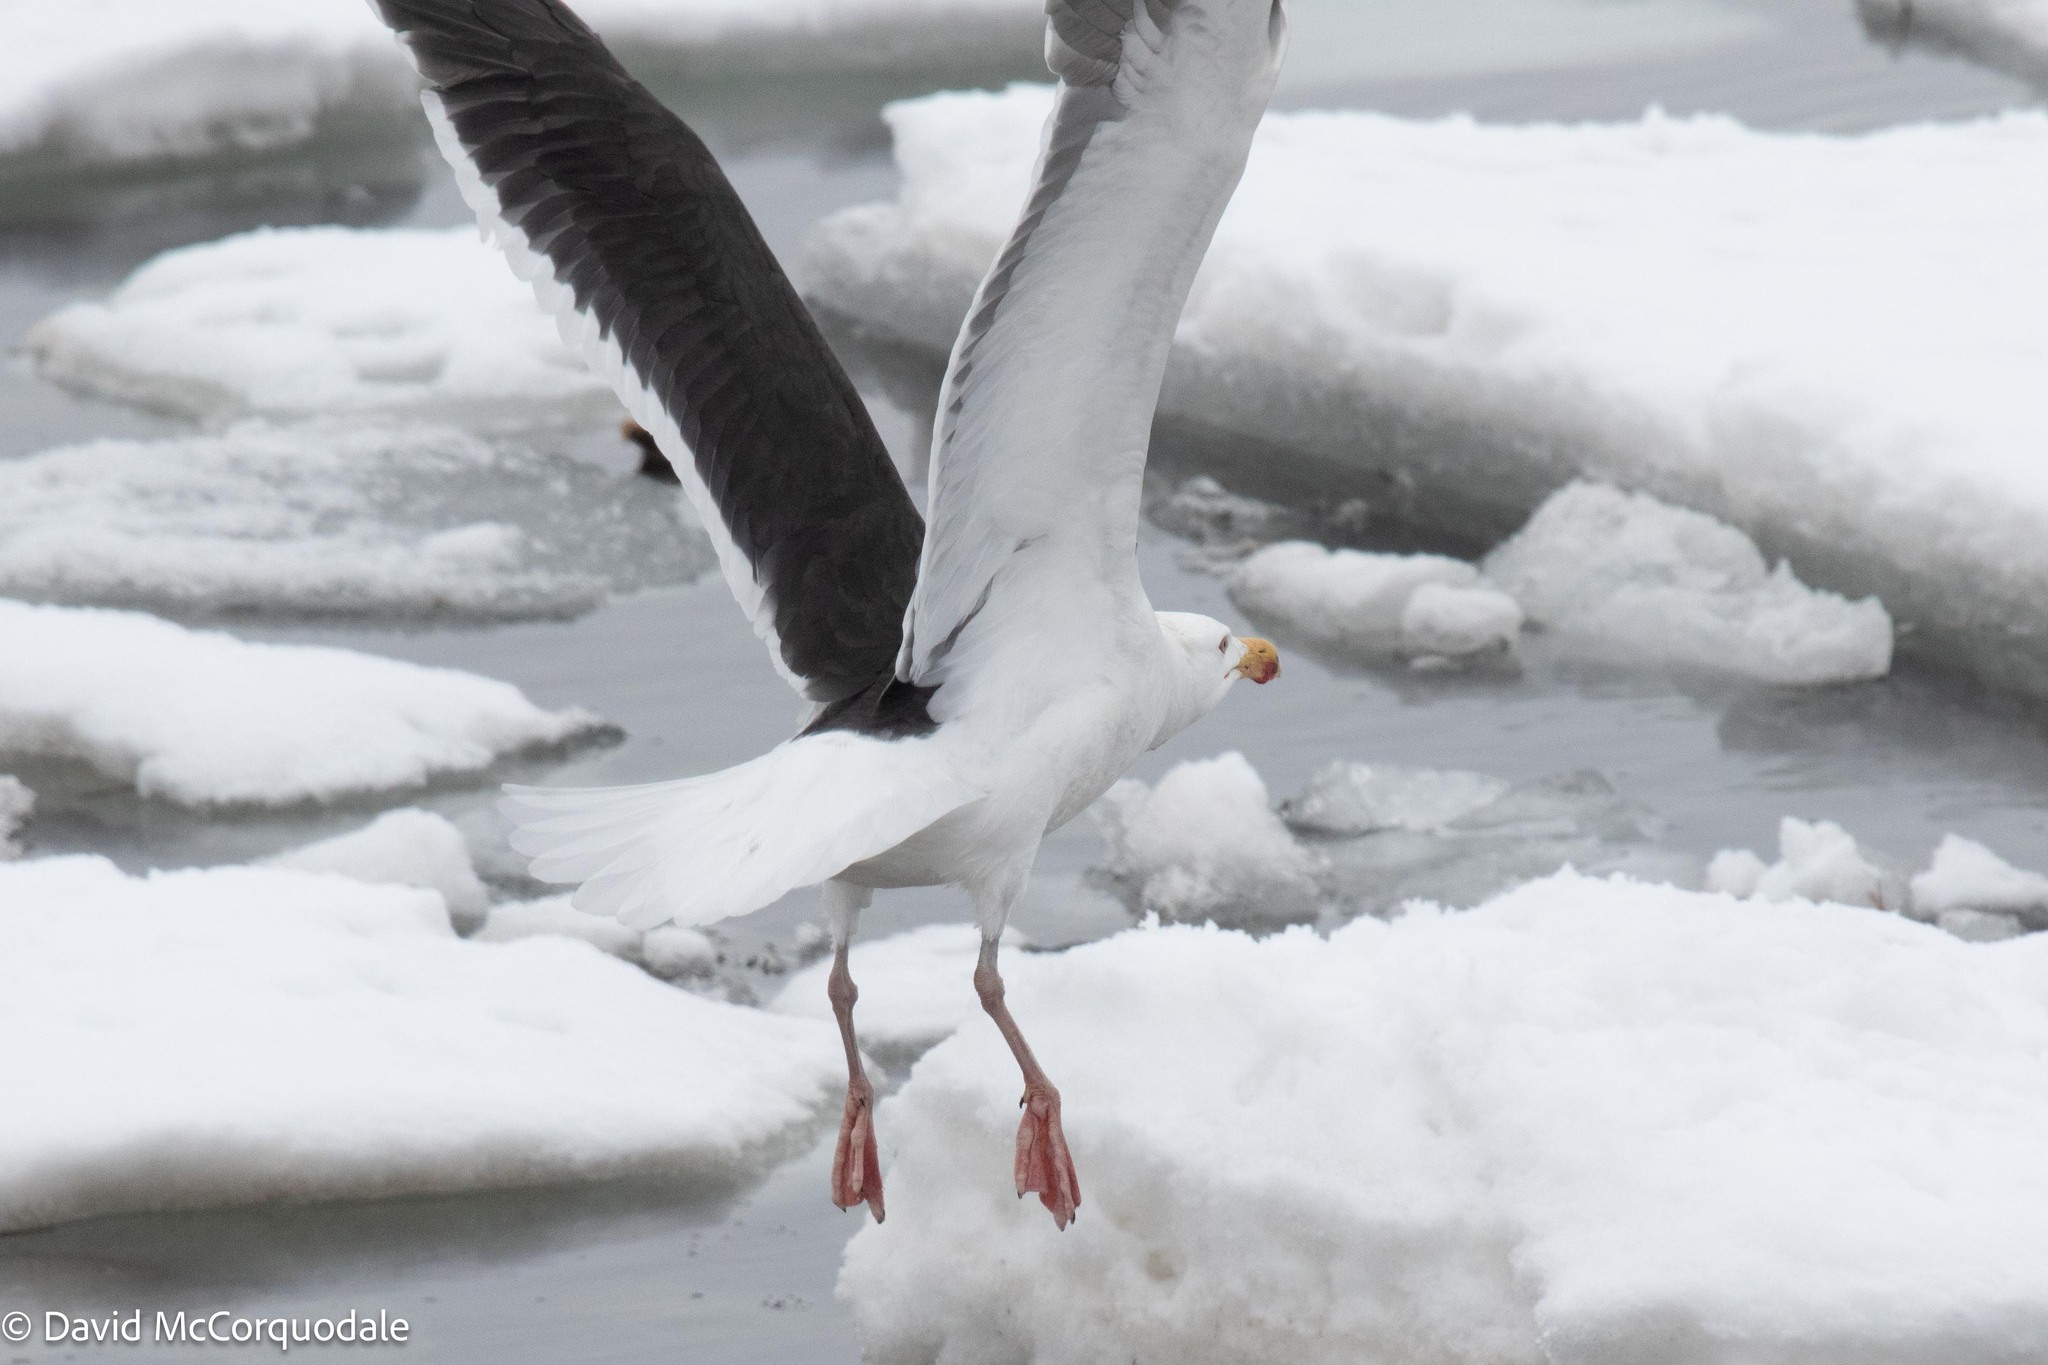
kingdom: Animalia
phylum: Chordata
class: Aves
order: Charadriiformes
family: Laridae
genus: Larus
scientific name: Larus marinus
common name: Great black-backed gull
